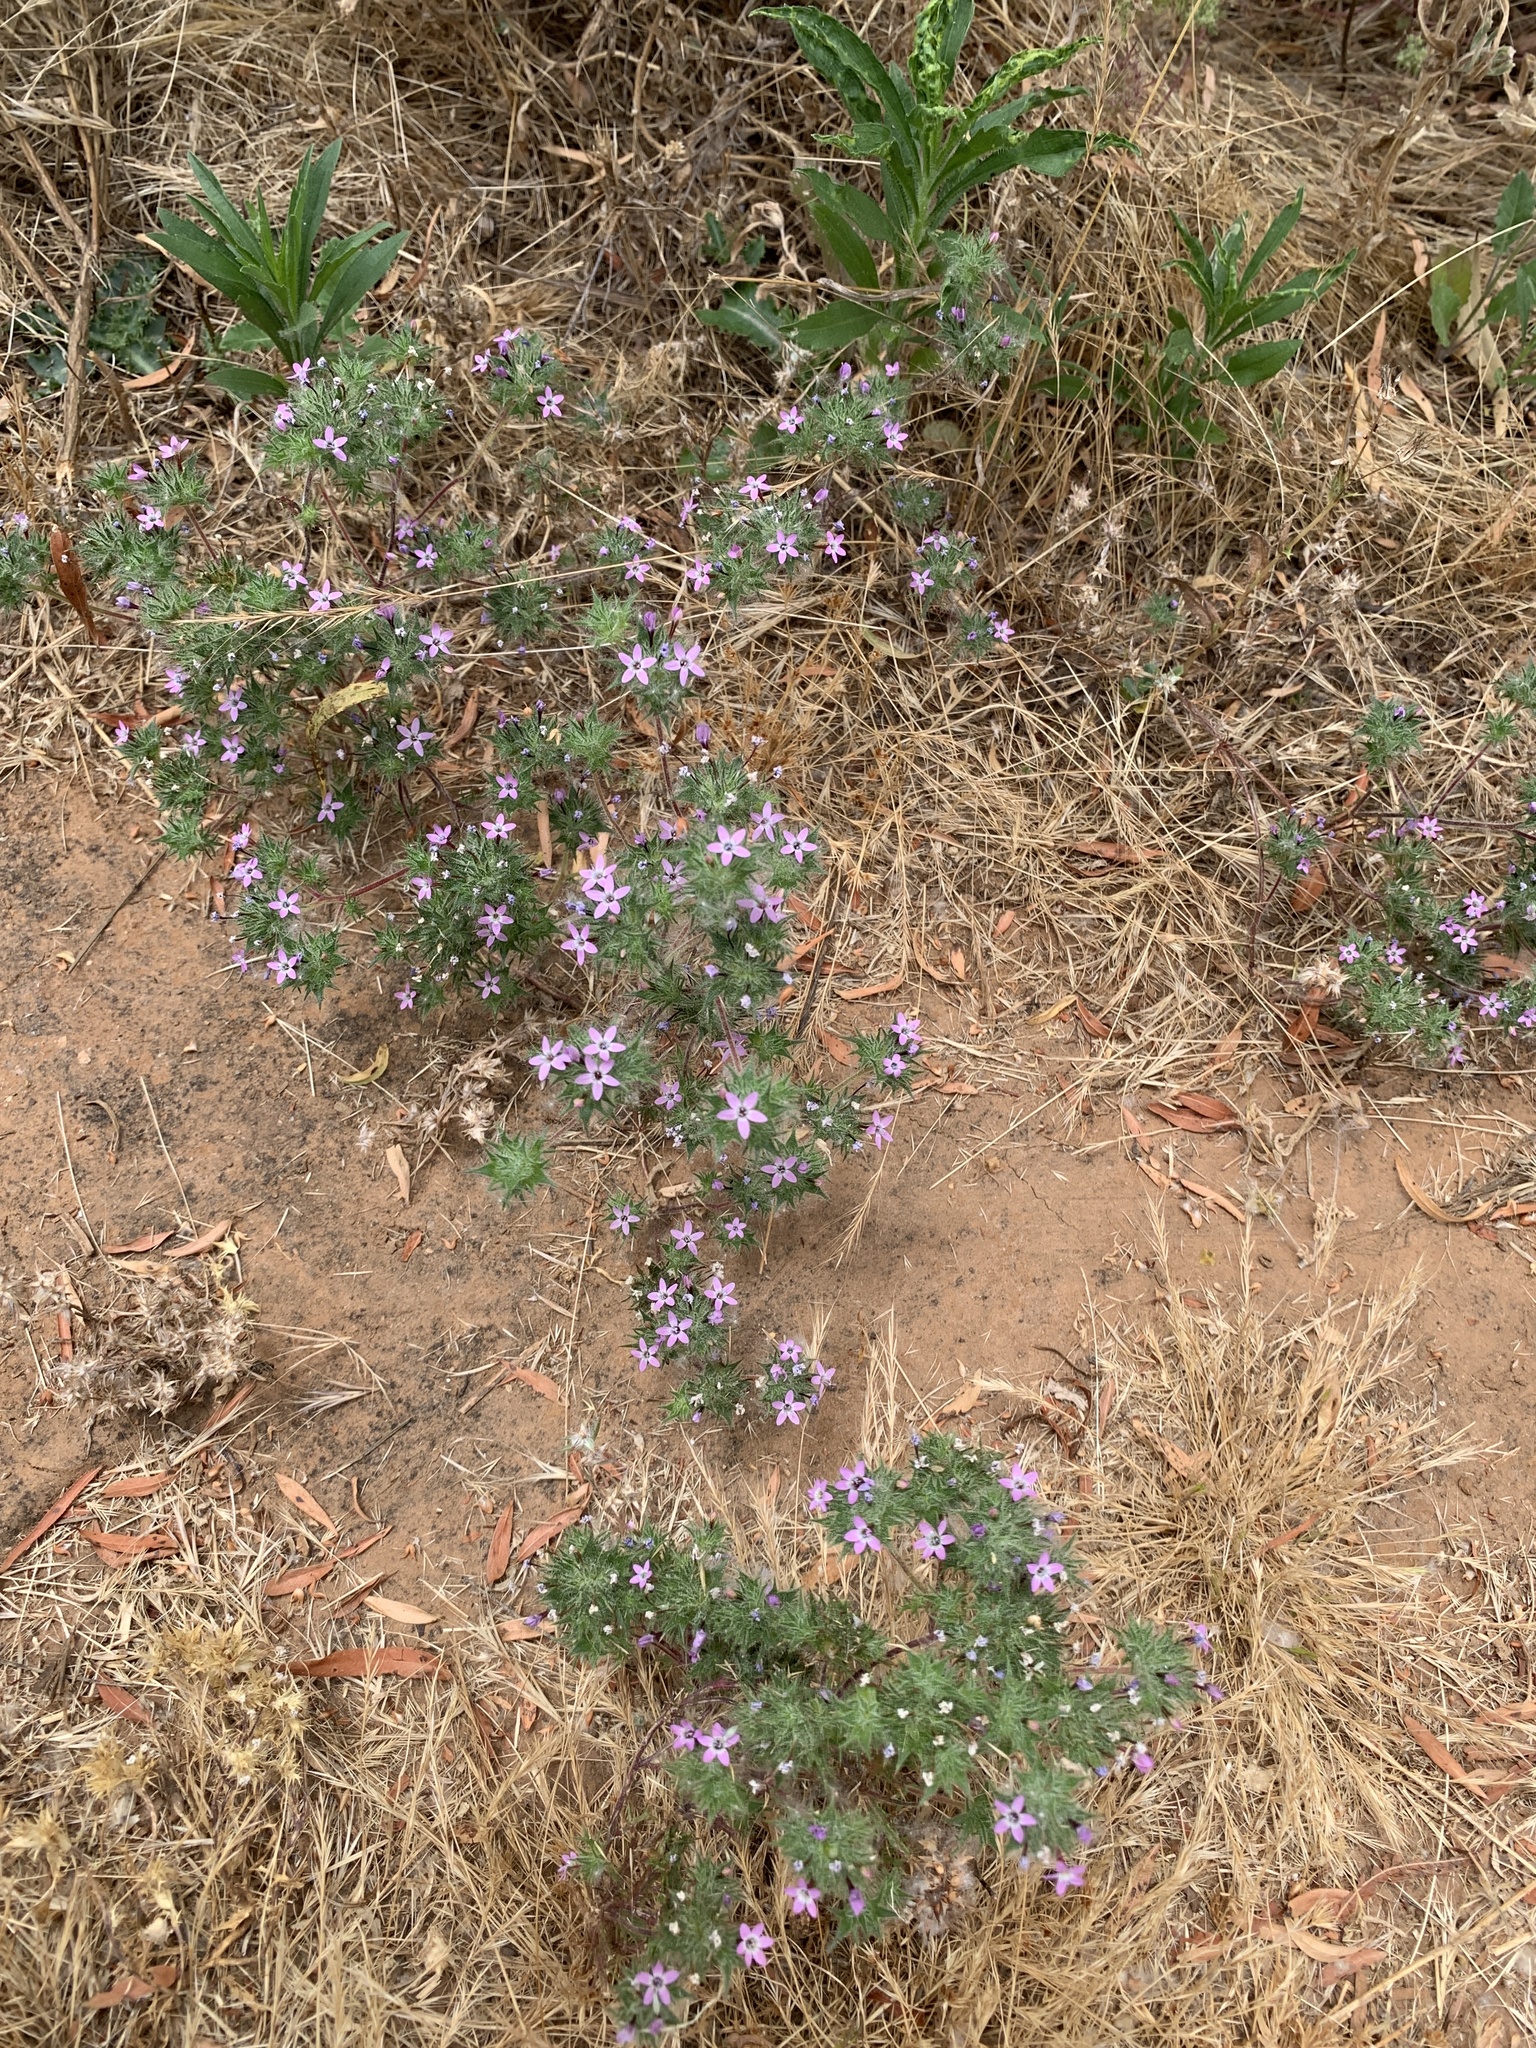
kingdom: Plantae
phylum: Tracheophyta
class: Magnoliopsida
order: Ericales
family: Polemoniaceae
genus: Navarretia
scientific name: Navarretia hamata
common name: Hooked navarretia
